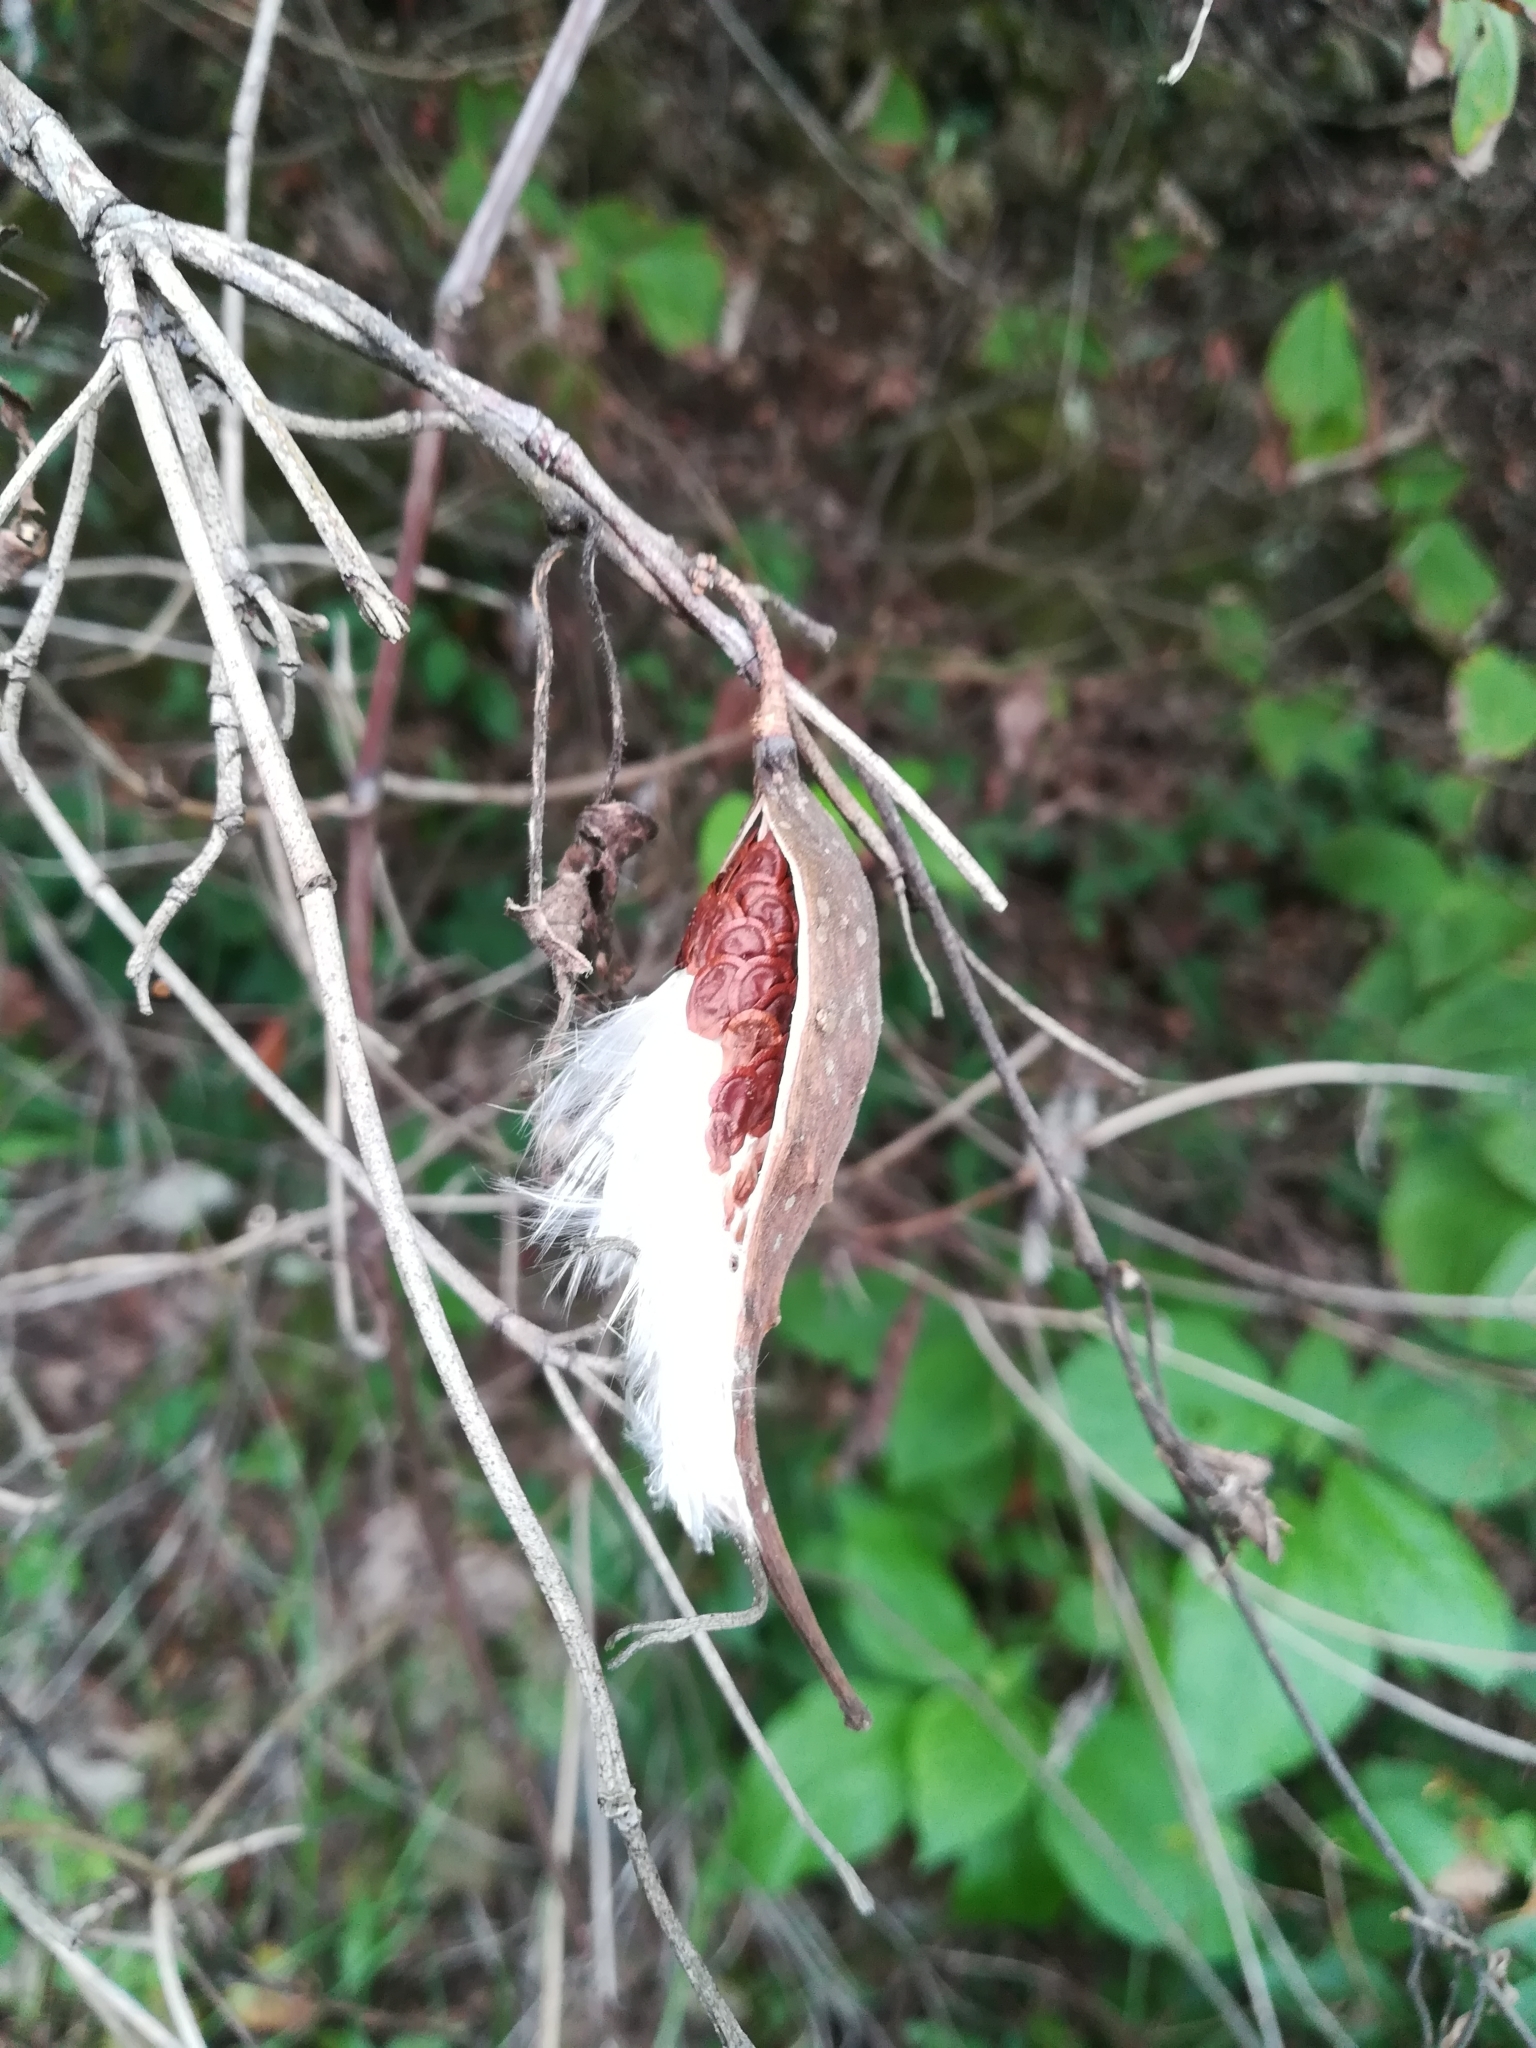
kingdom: Plantae
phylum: Tracheophyta
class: Magnoliopsida
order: Gentianales
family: Apocynaceae
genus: Dictyanthus
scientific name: Dictyanthus reticulatus
